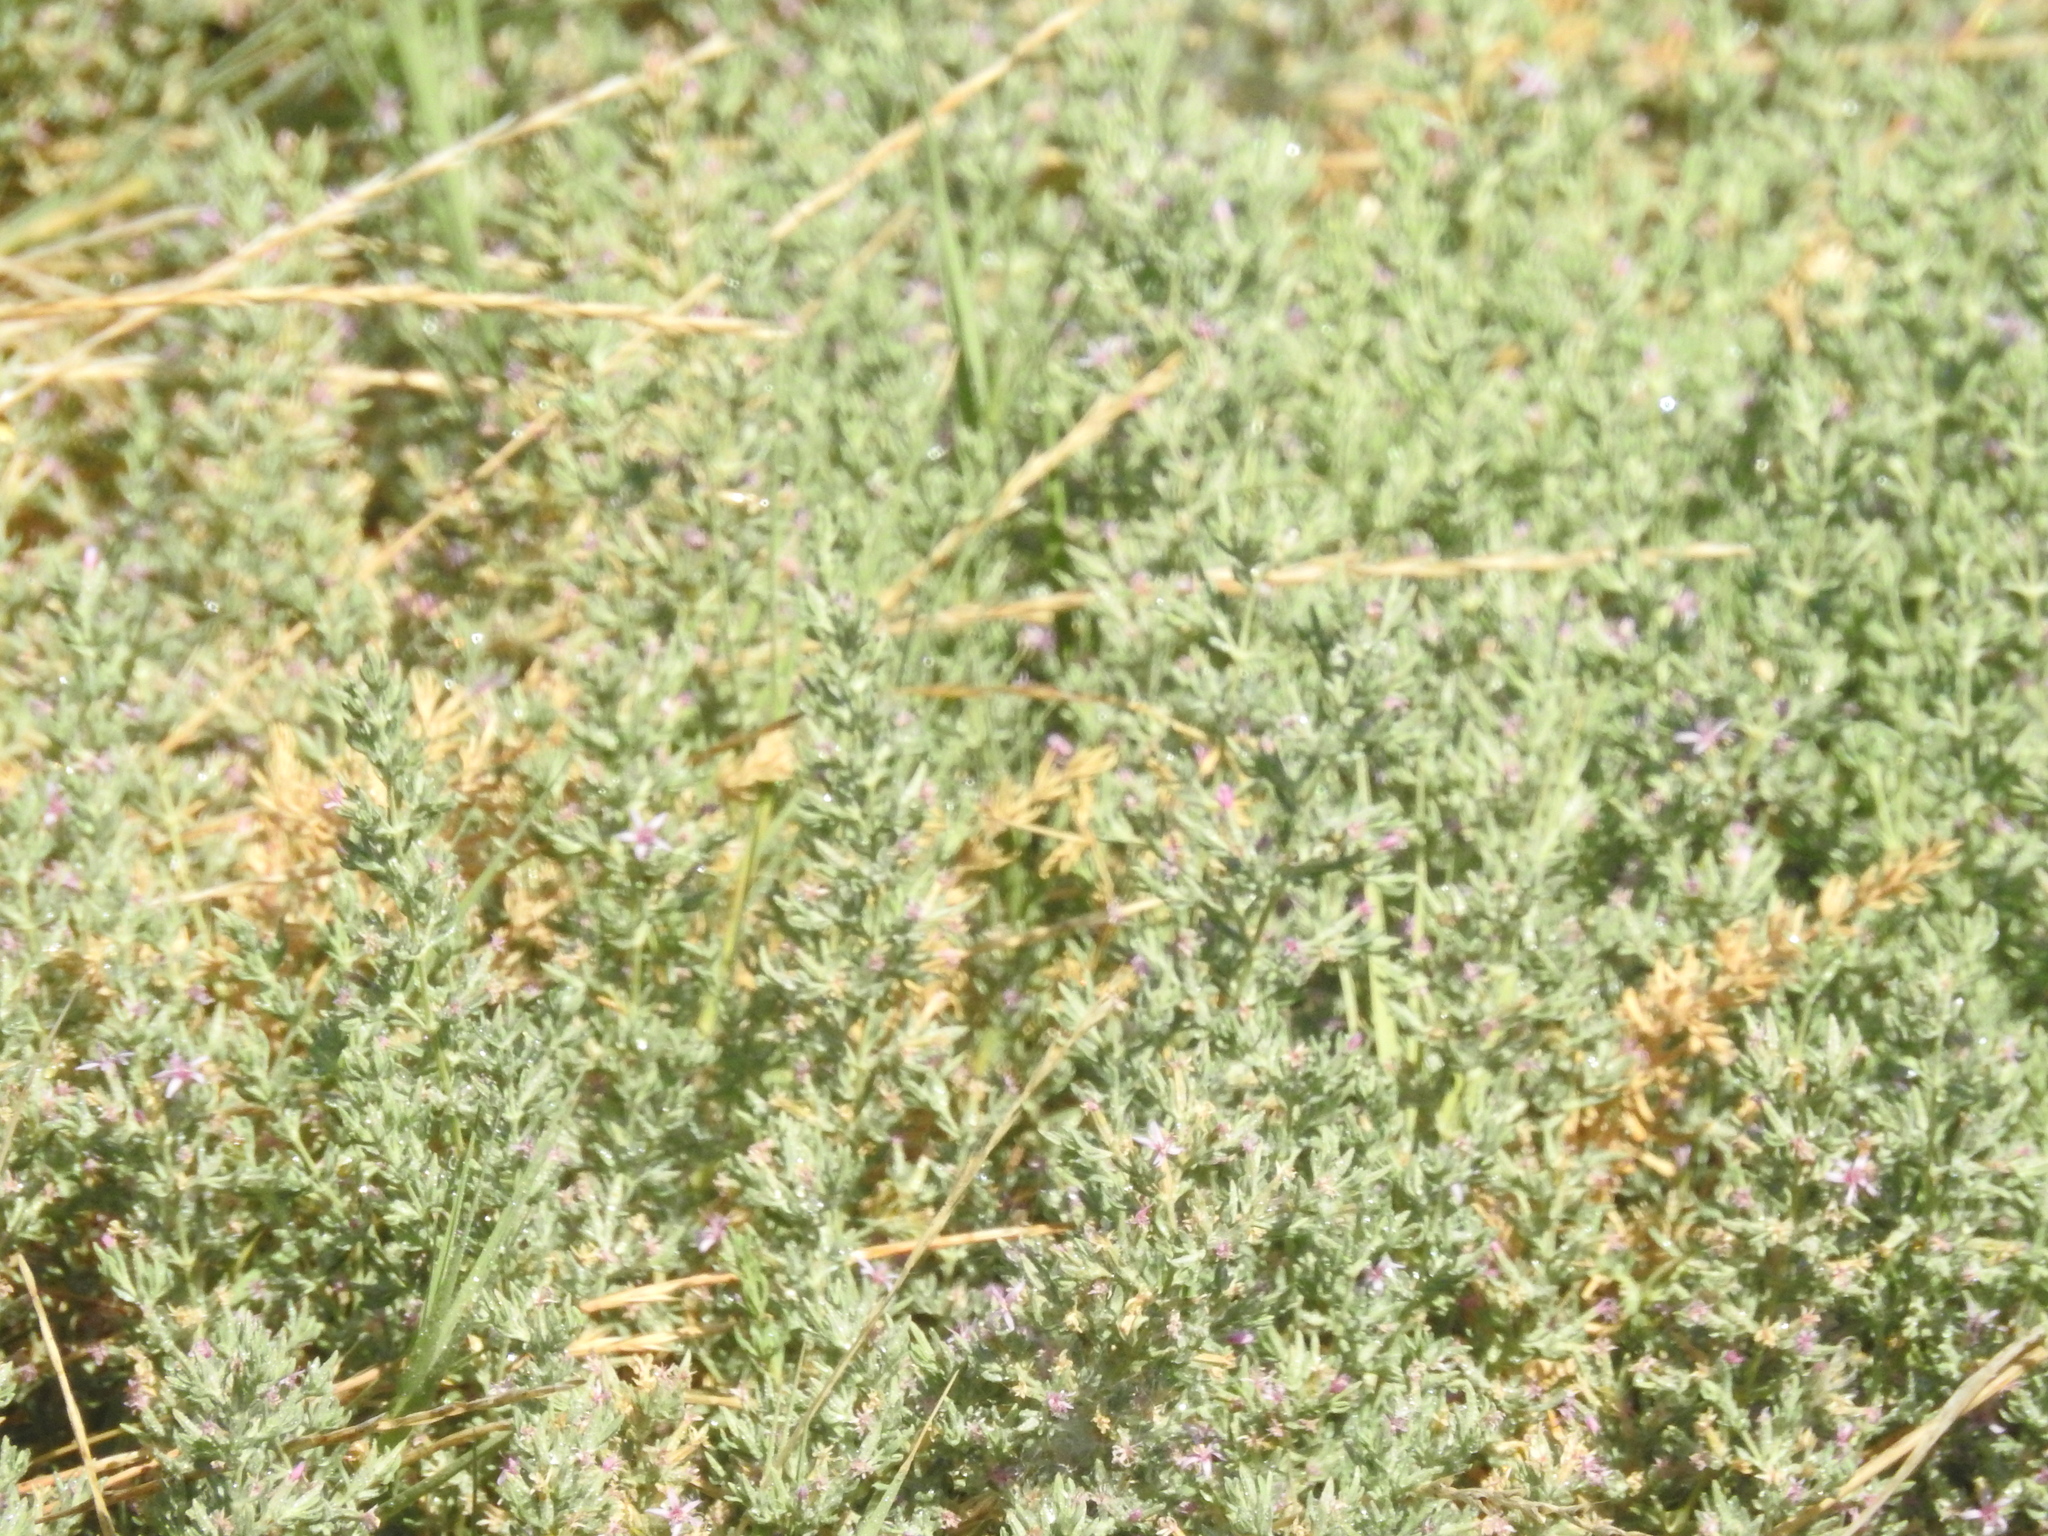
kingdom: Plantae
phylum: Tracheophyta
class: Magnoliopsida
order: Caryophyllales
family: Frankeniaceae
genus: Frankenia
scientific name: Frankenia salina
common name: Alkali seaheath
